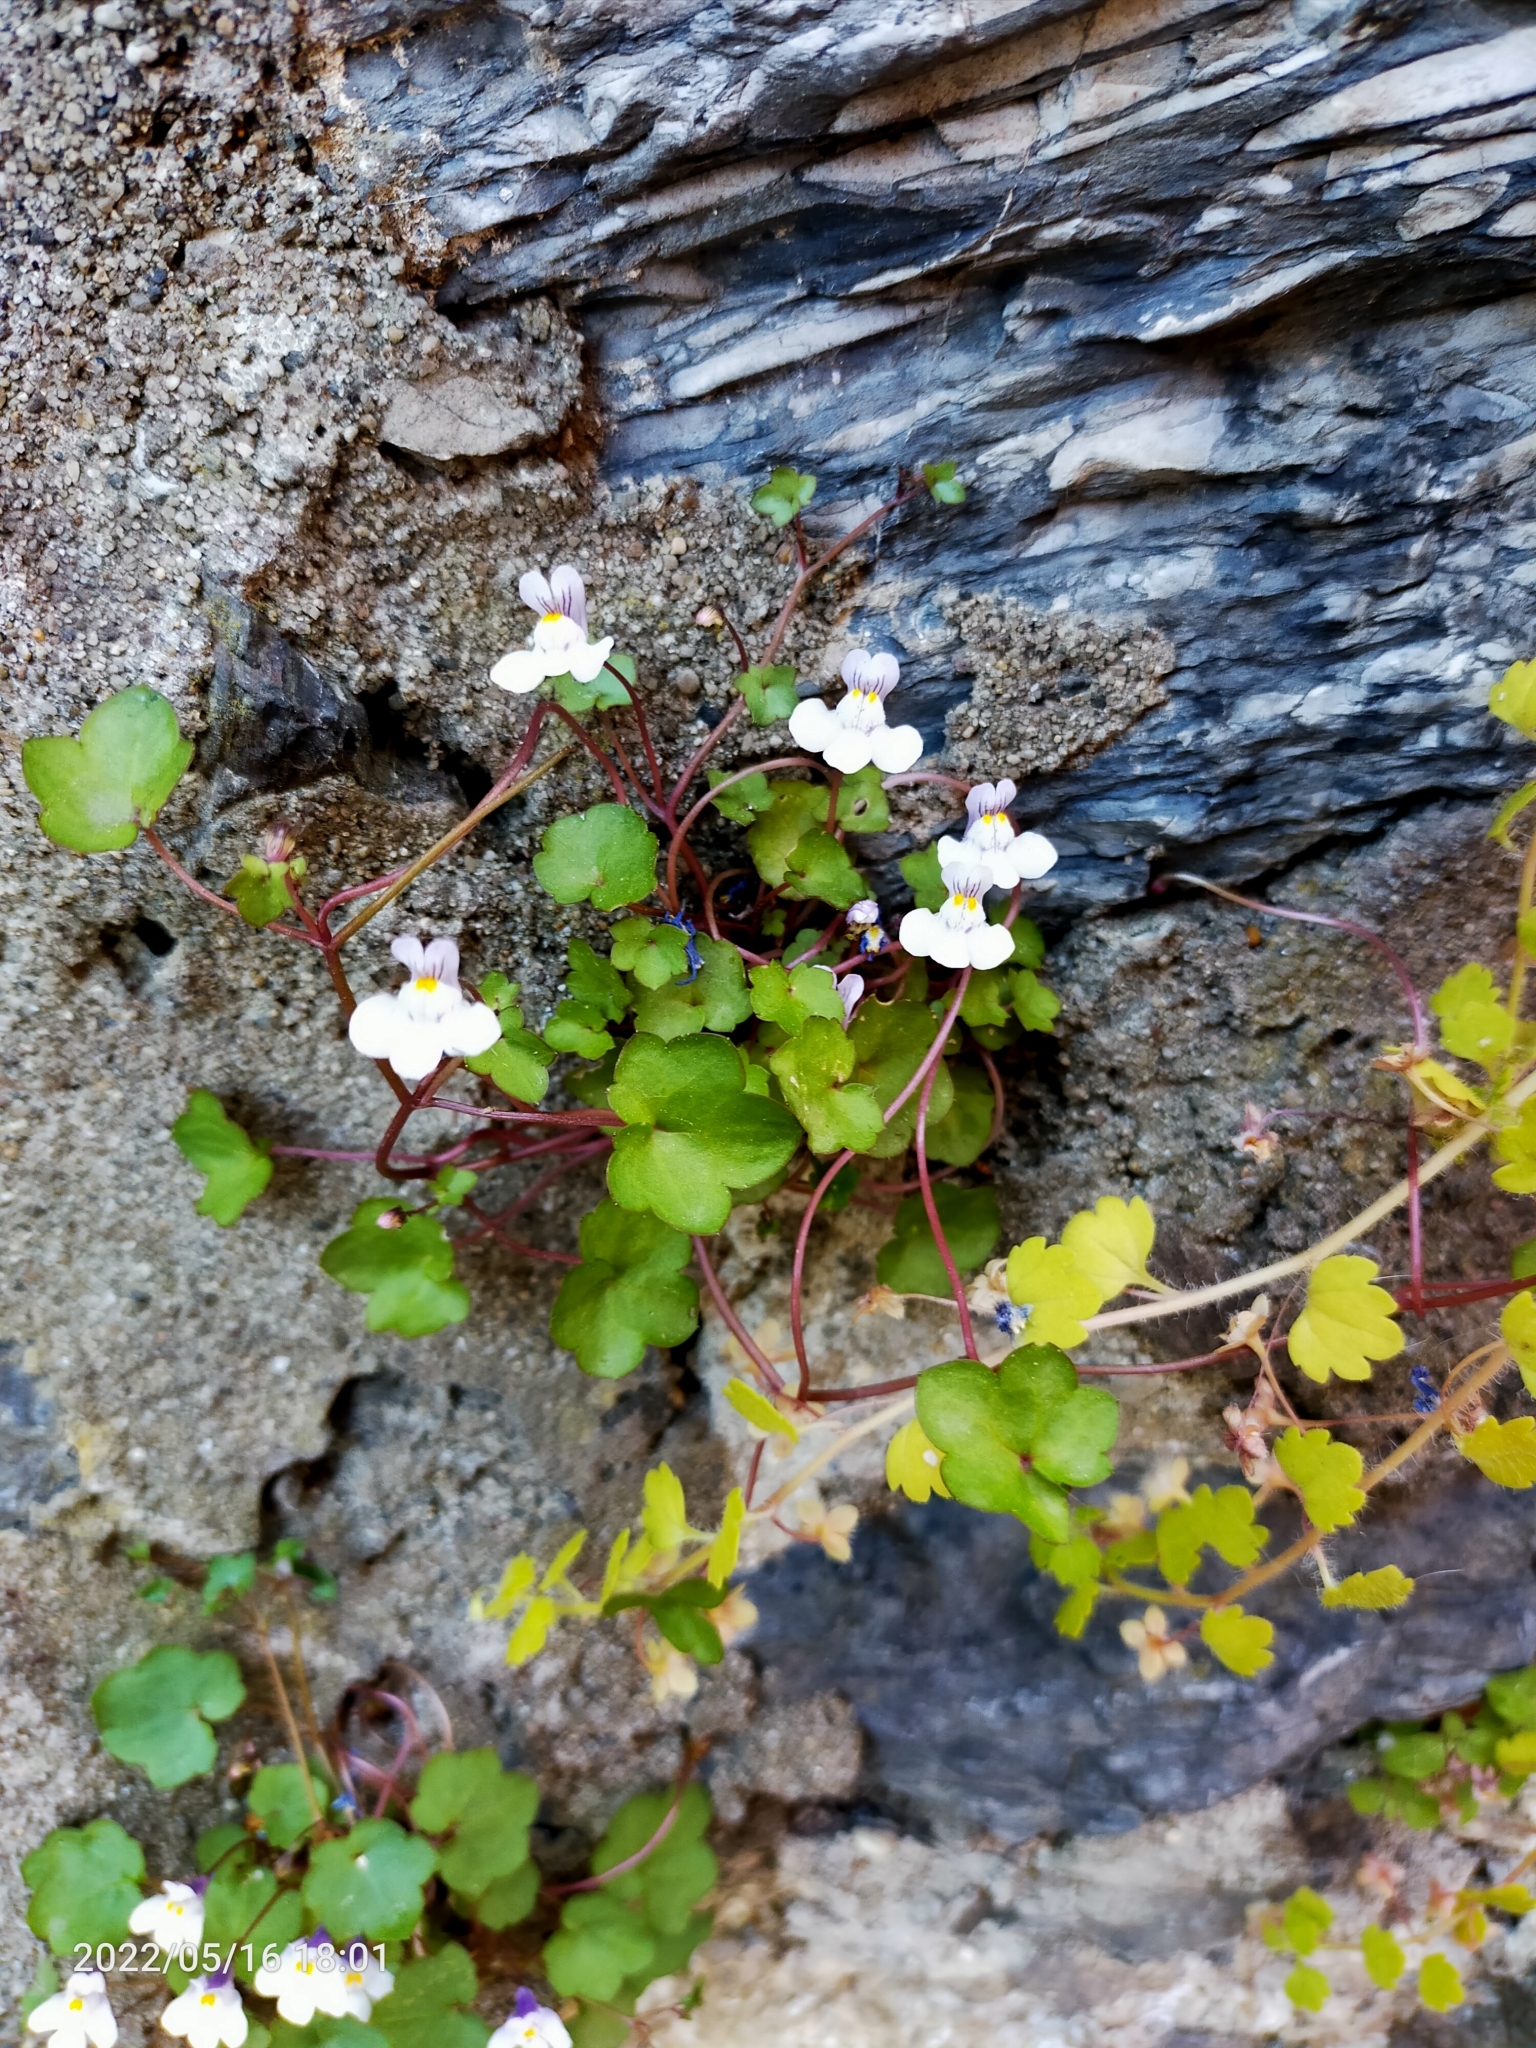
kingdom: Plantae
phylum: Tracheophyta
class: Magnoliopsida
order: Lamiales
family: Plantaginaceae
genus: Cymbalaria
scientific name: Cymbalaria muralis
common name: Ivy-leaved toadflax
